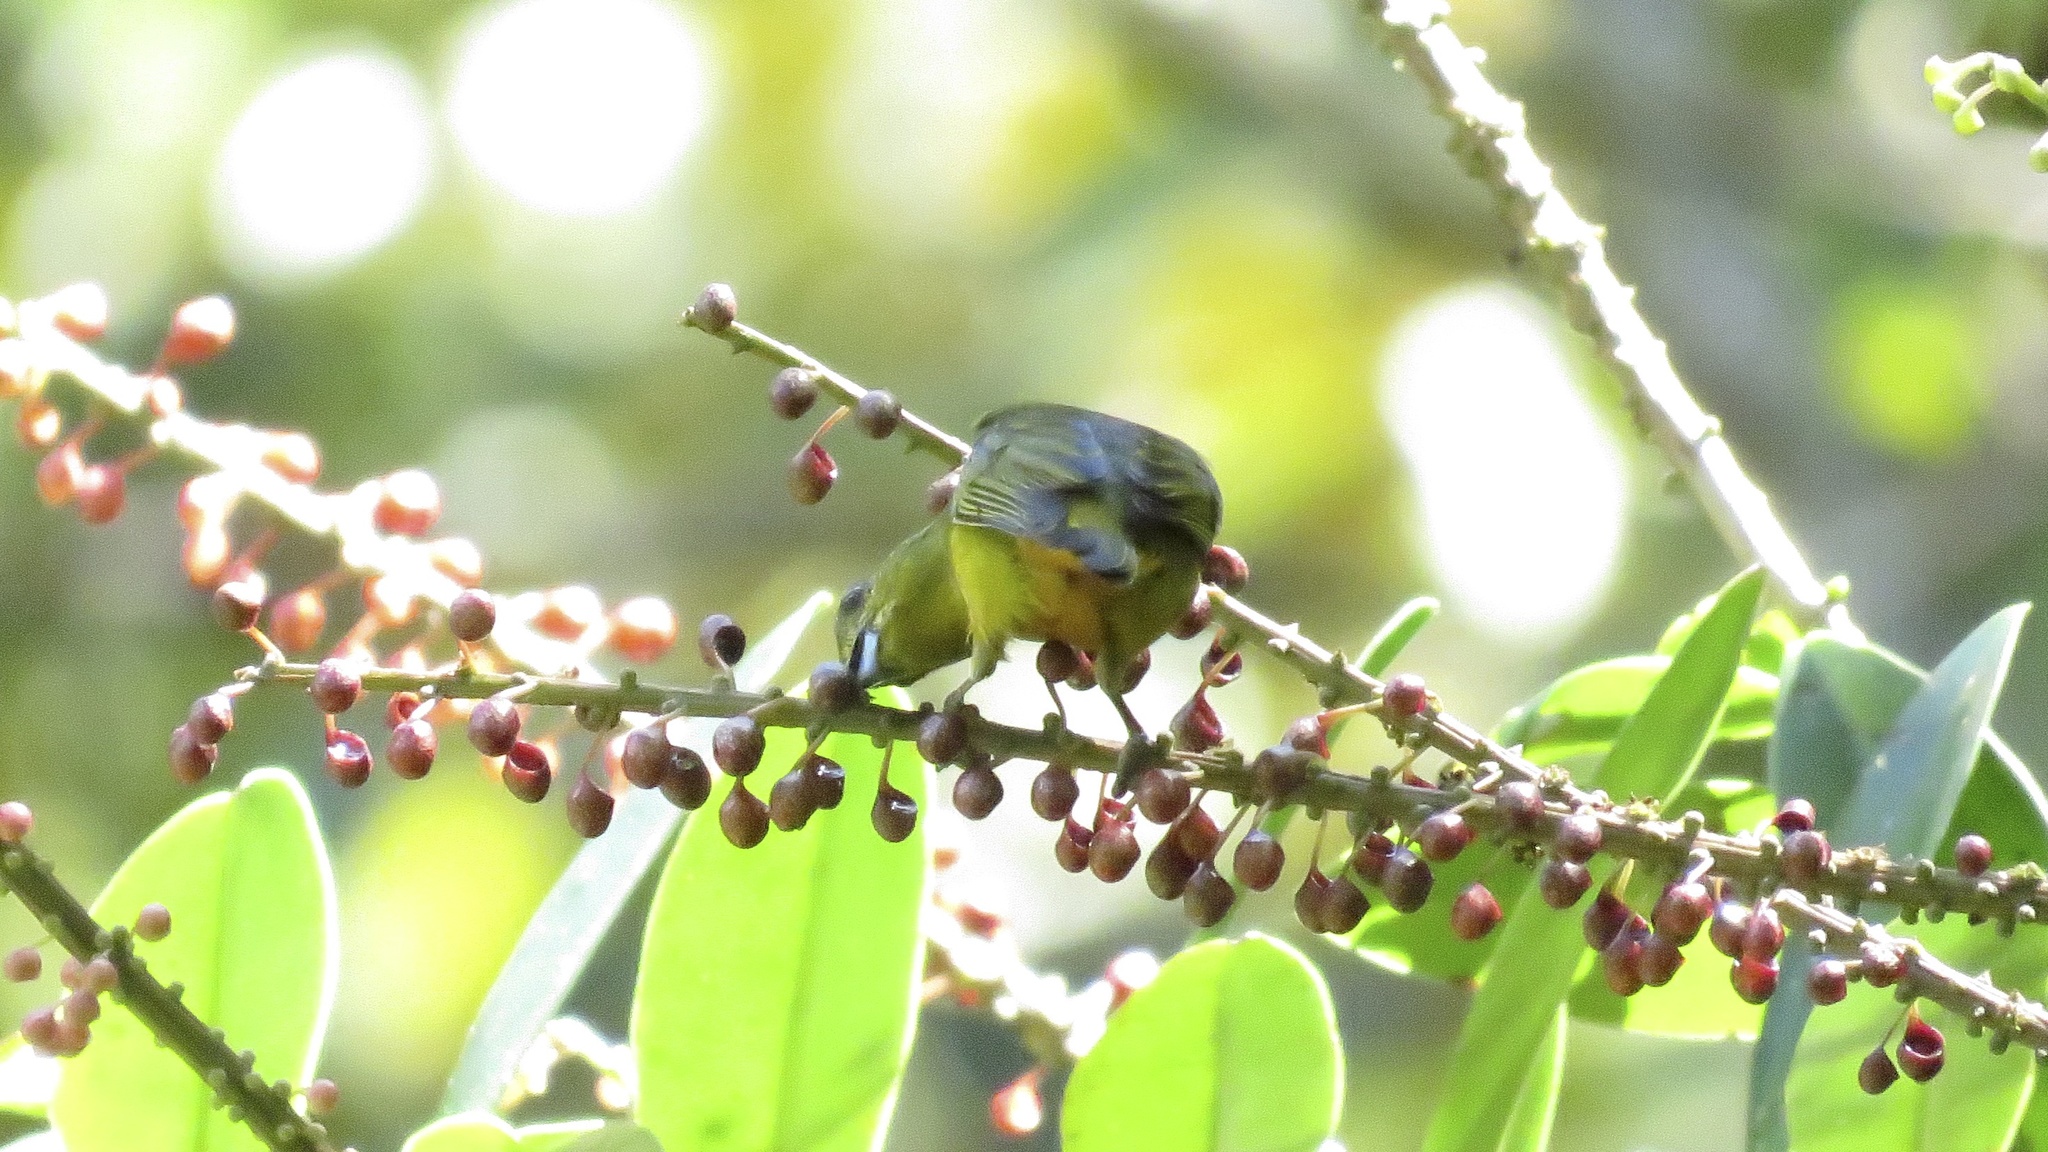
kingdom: Animalia
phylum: Chordata
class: Aves
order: Passeriformes
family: Fringillidae
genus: Euphonia
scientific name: Euphonia imitans
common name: Spot-crowned euphonia
